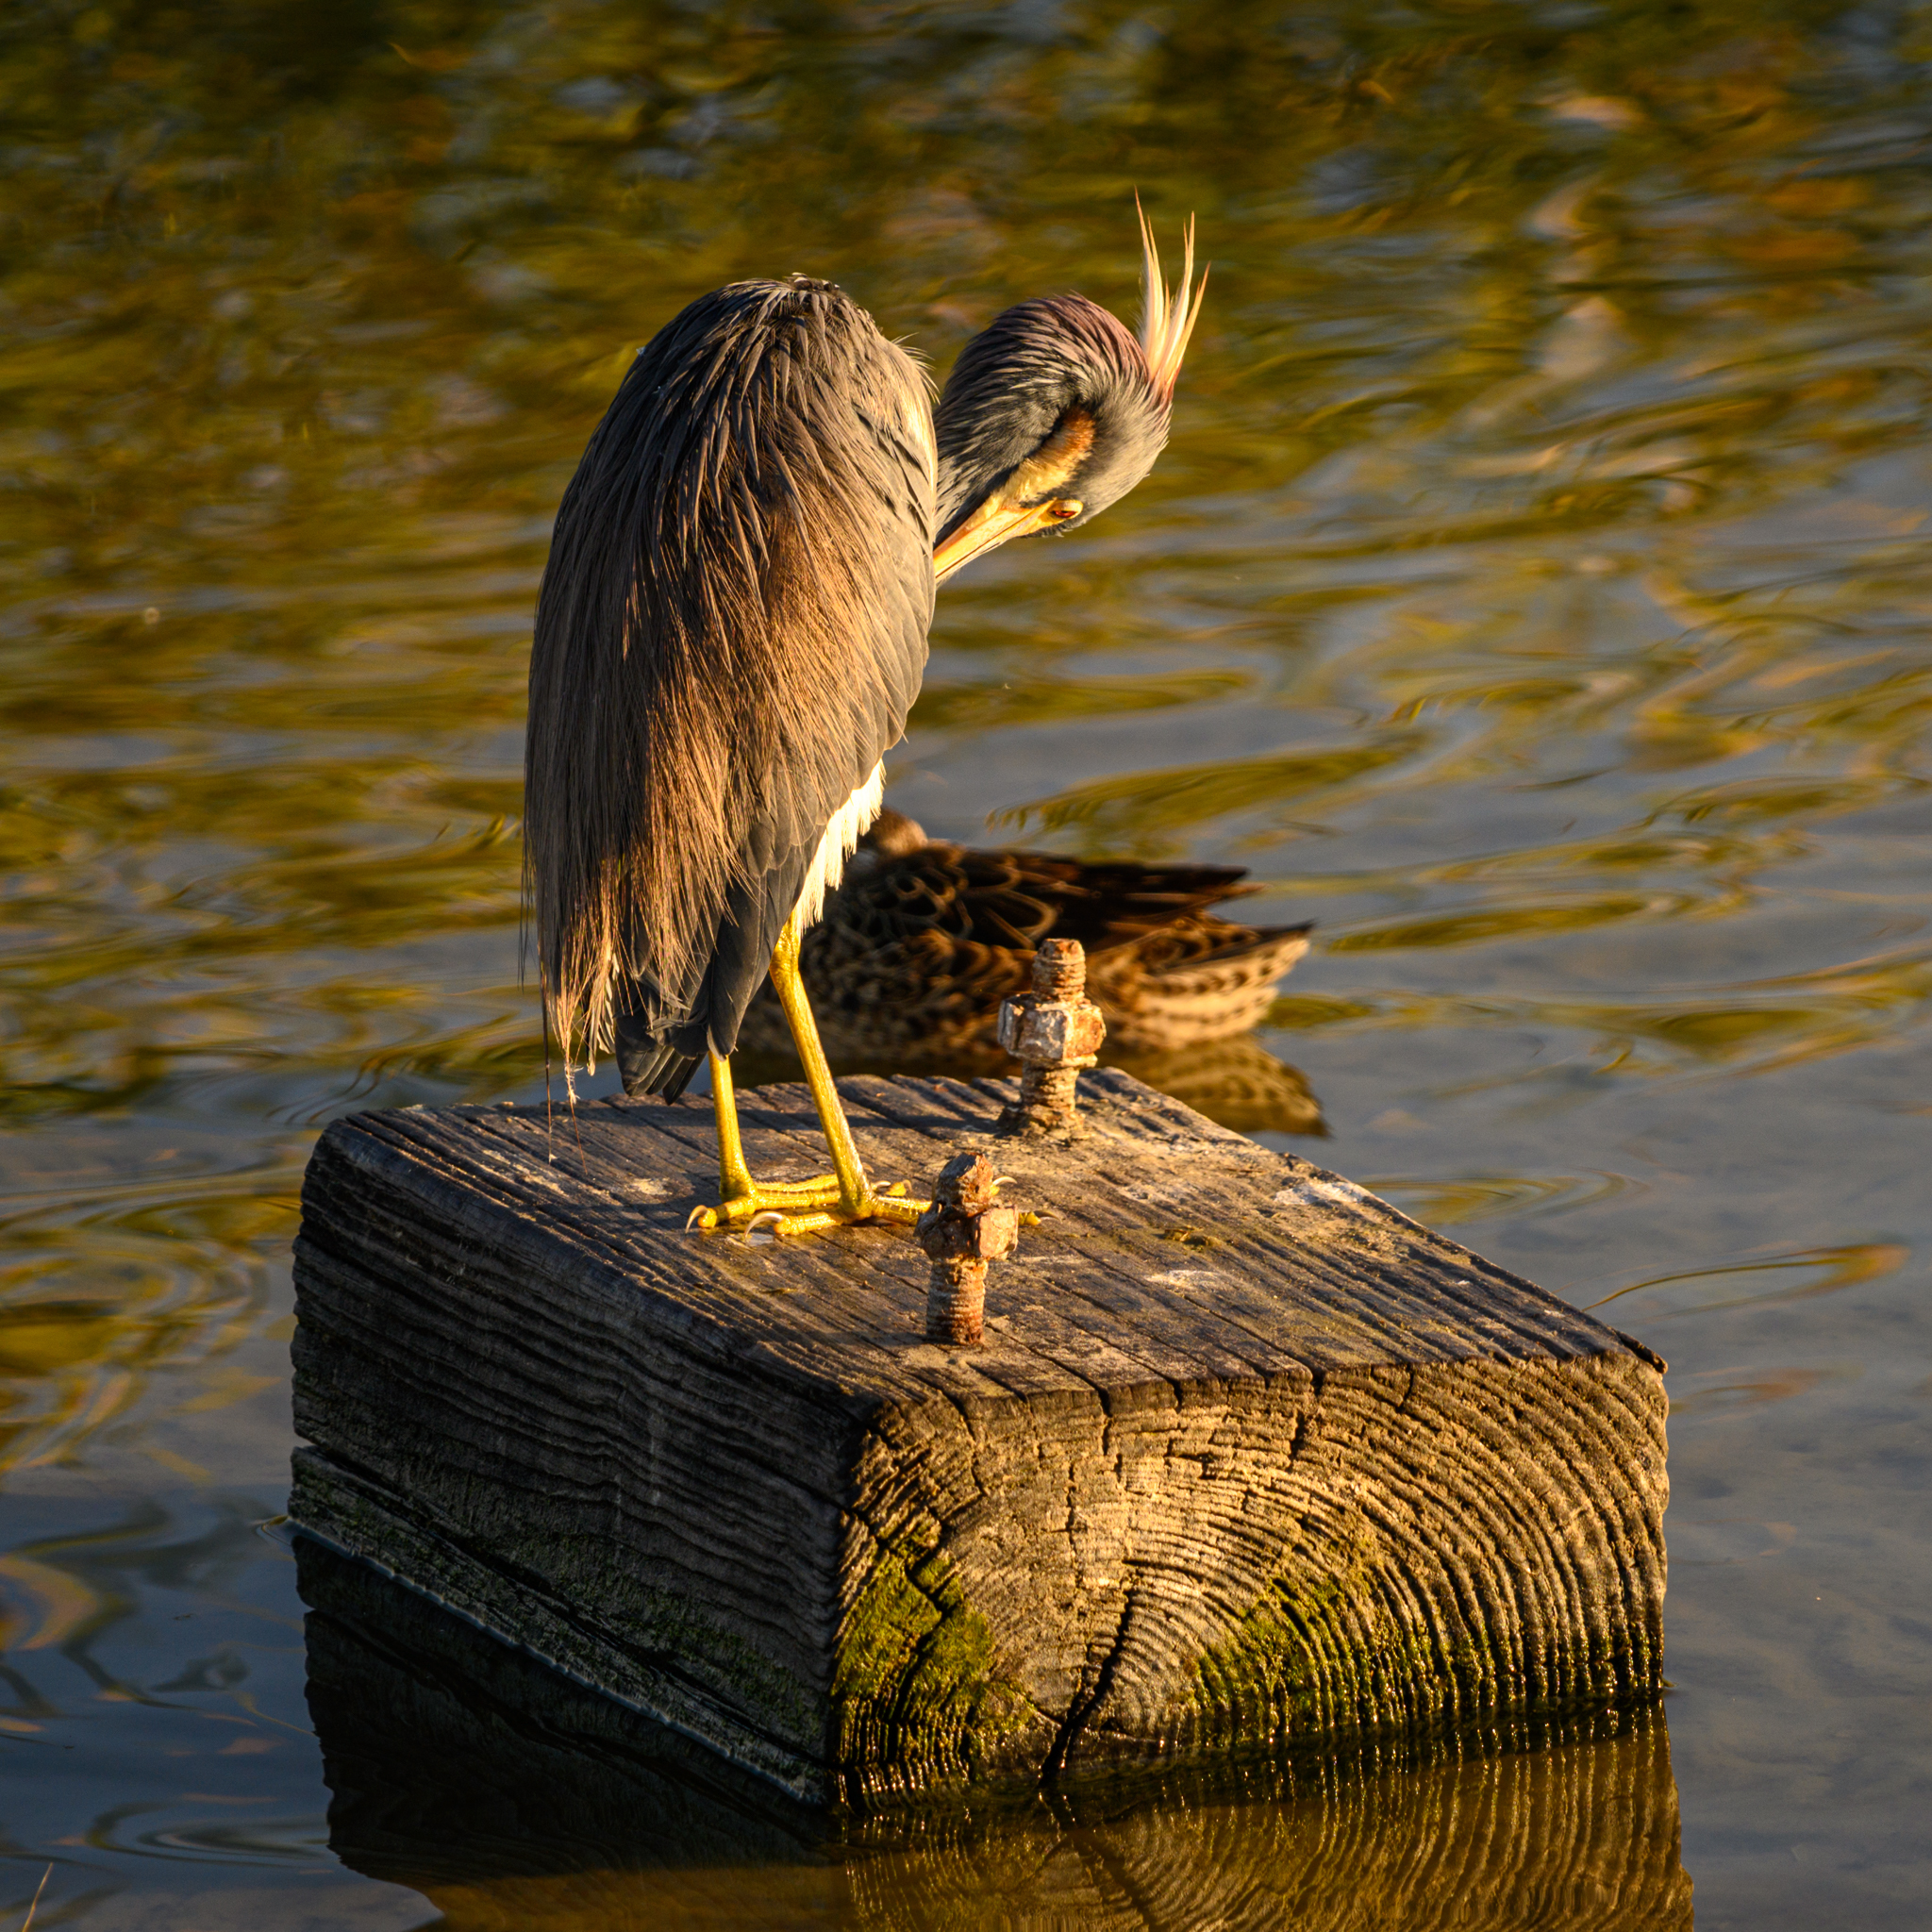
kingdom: Animalia
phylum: Chordata
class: Aves
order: Pelecaniformes
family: Ardeidae
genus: Egretta
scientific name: Egretta tricolor
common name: Tricolored heron
